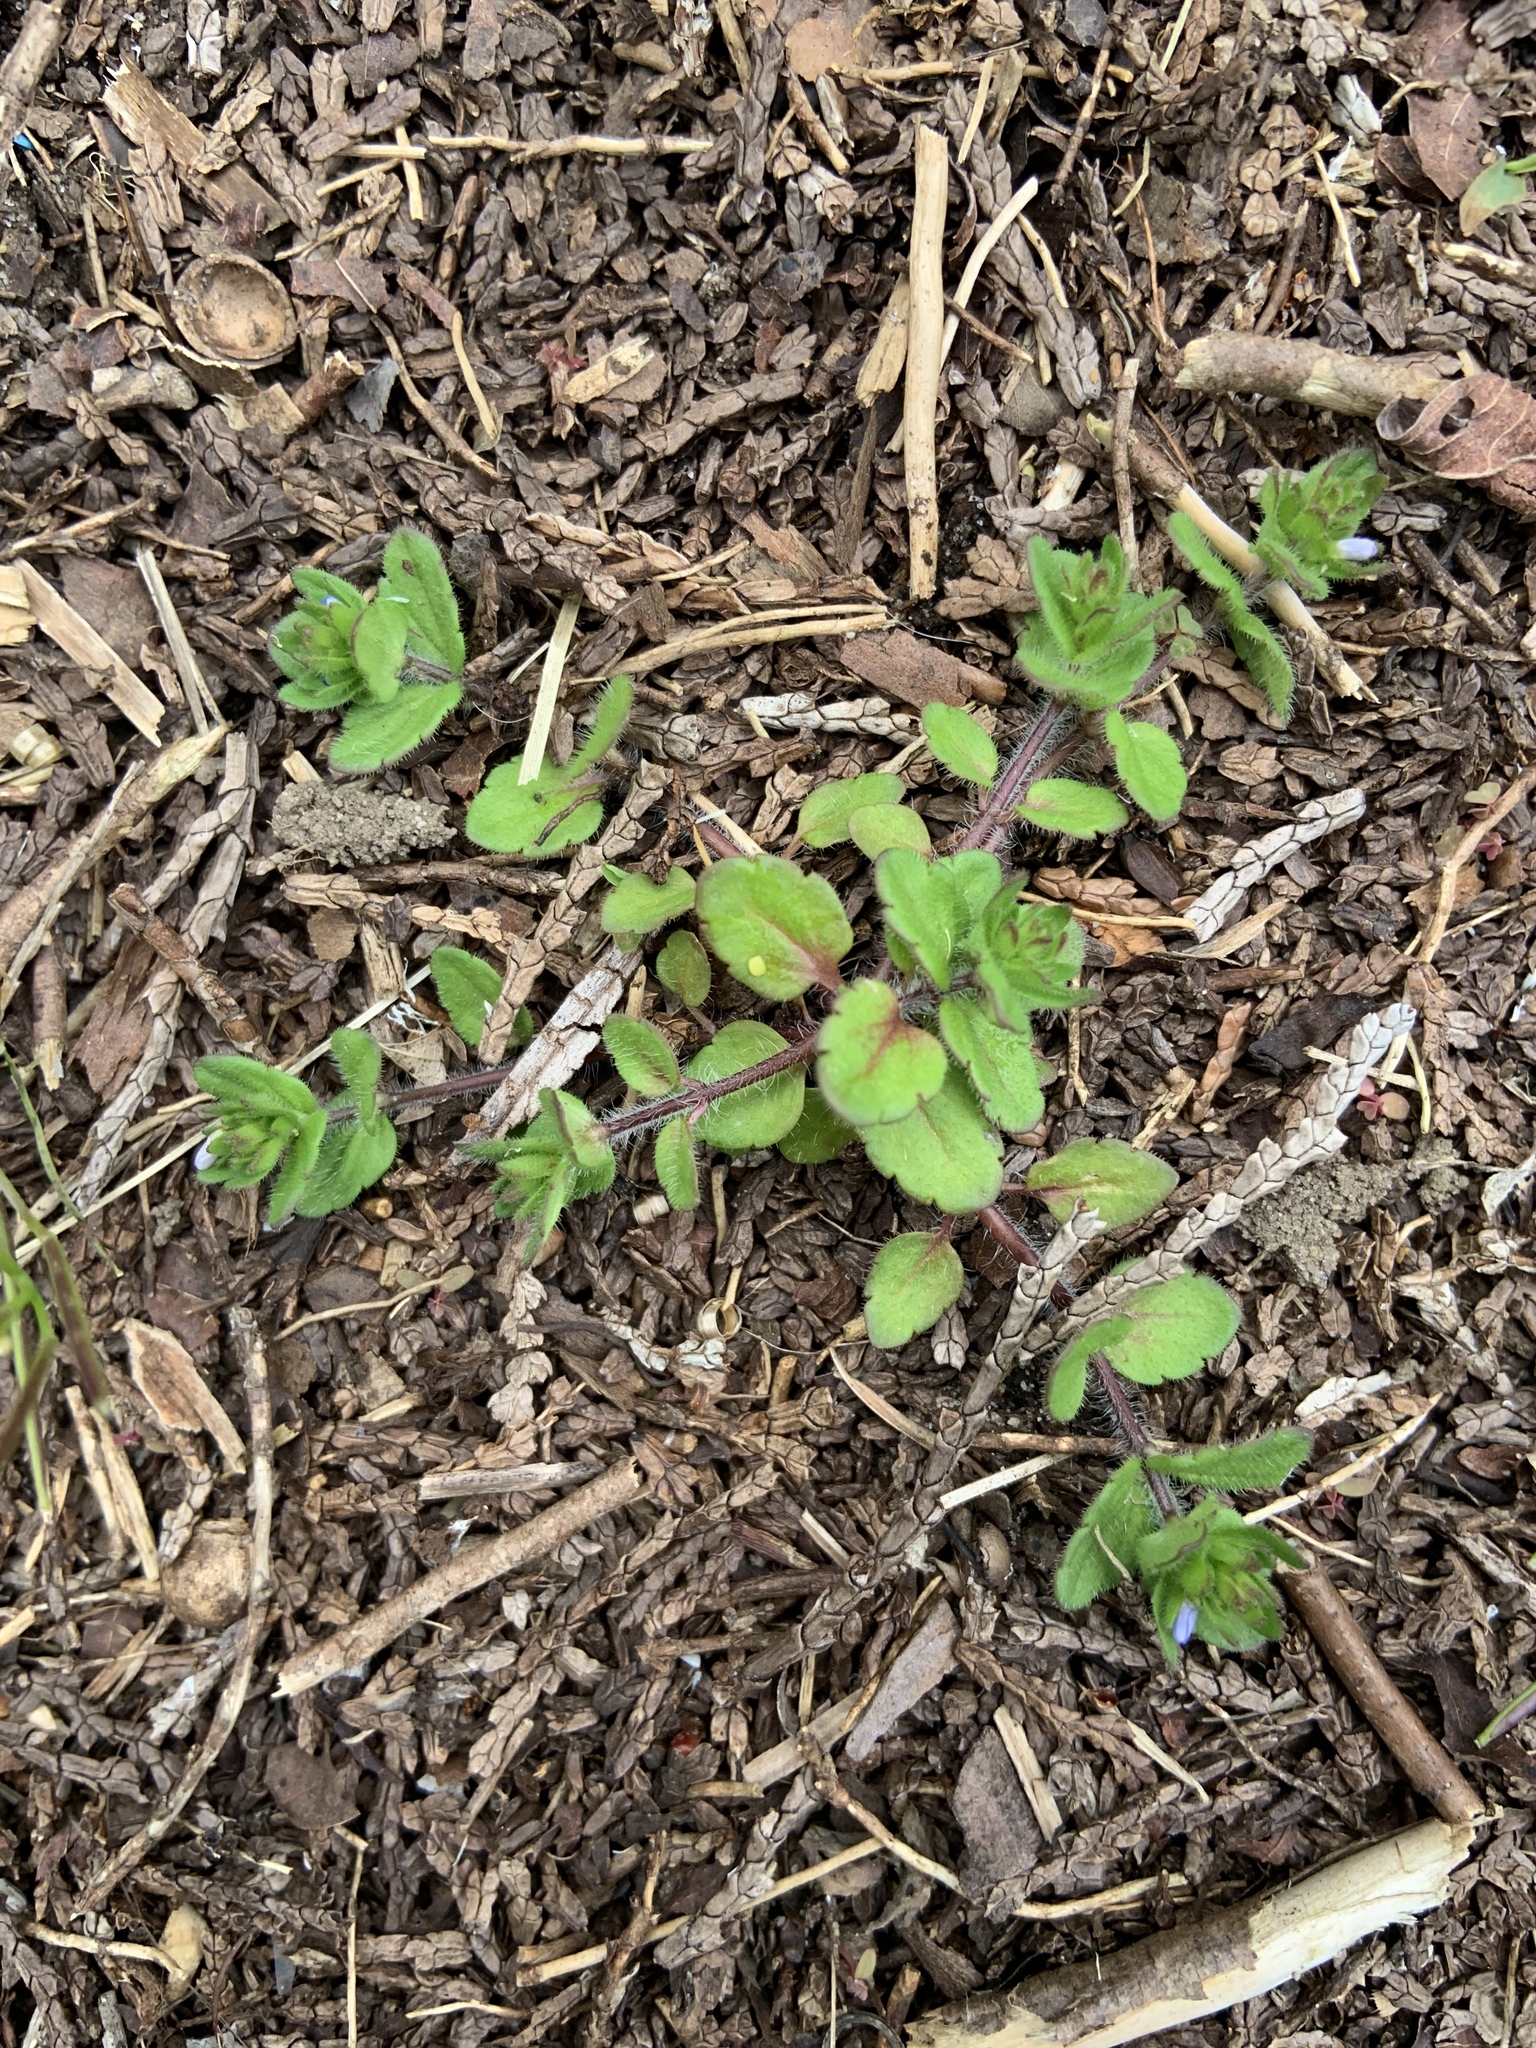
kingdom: Plantae
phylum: Tracheophyta
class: Magnoliopsida
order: Lamiales
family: Plantaginaceae
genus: Veronica
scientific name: Veronica arvensis
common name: Corn speedwell
